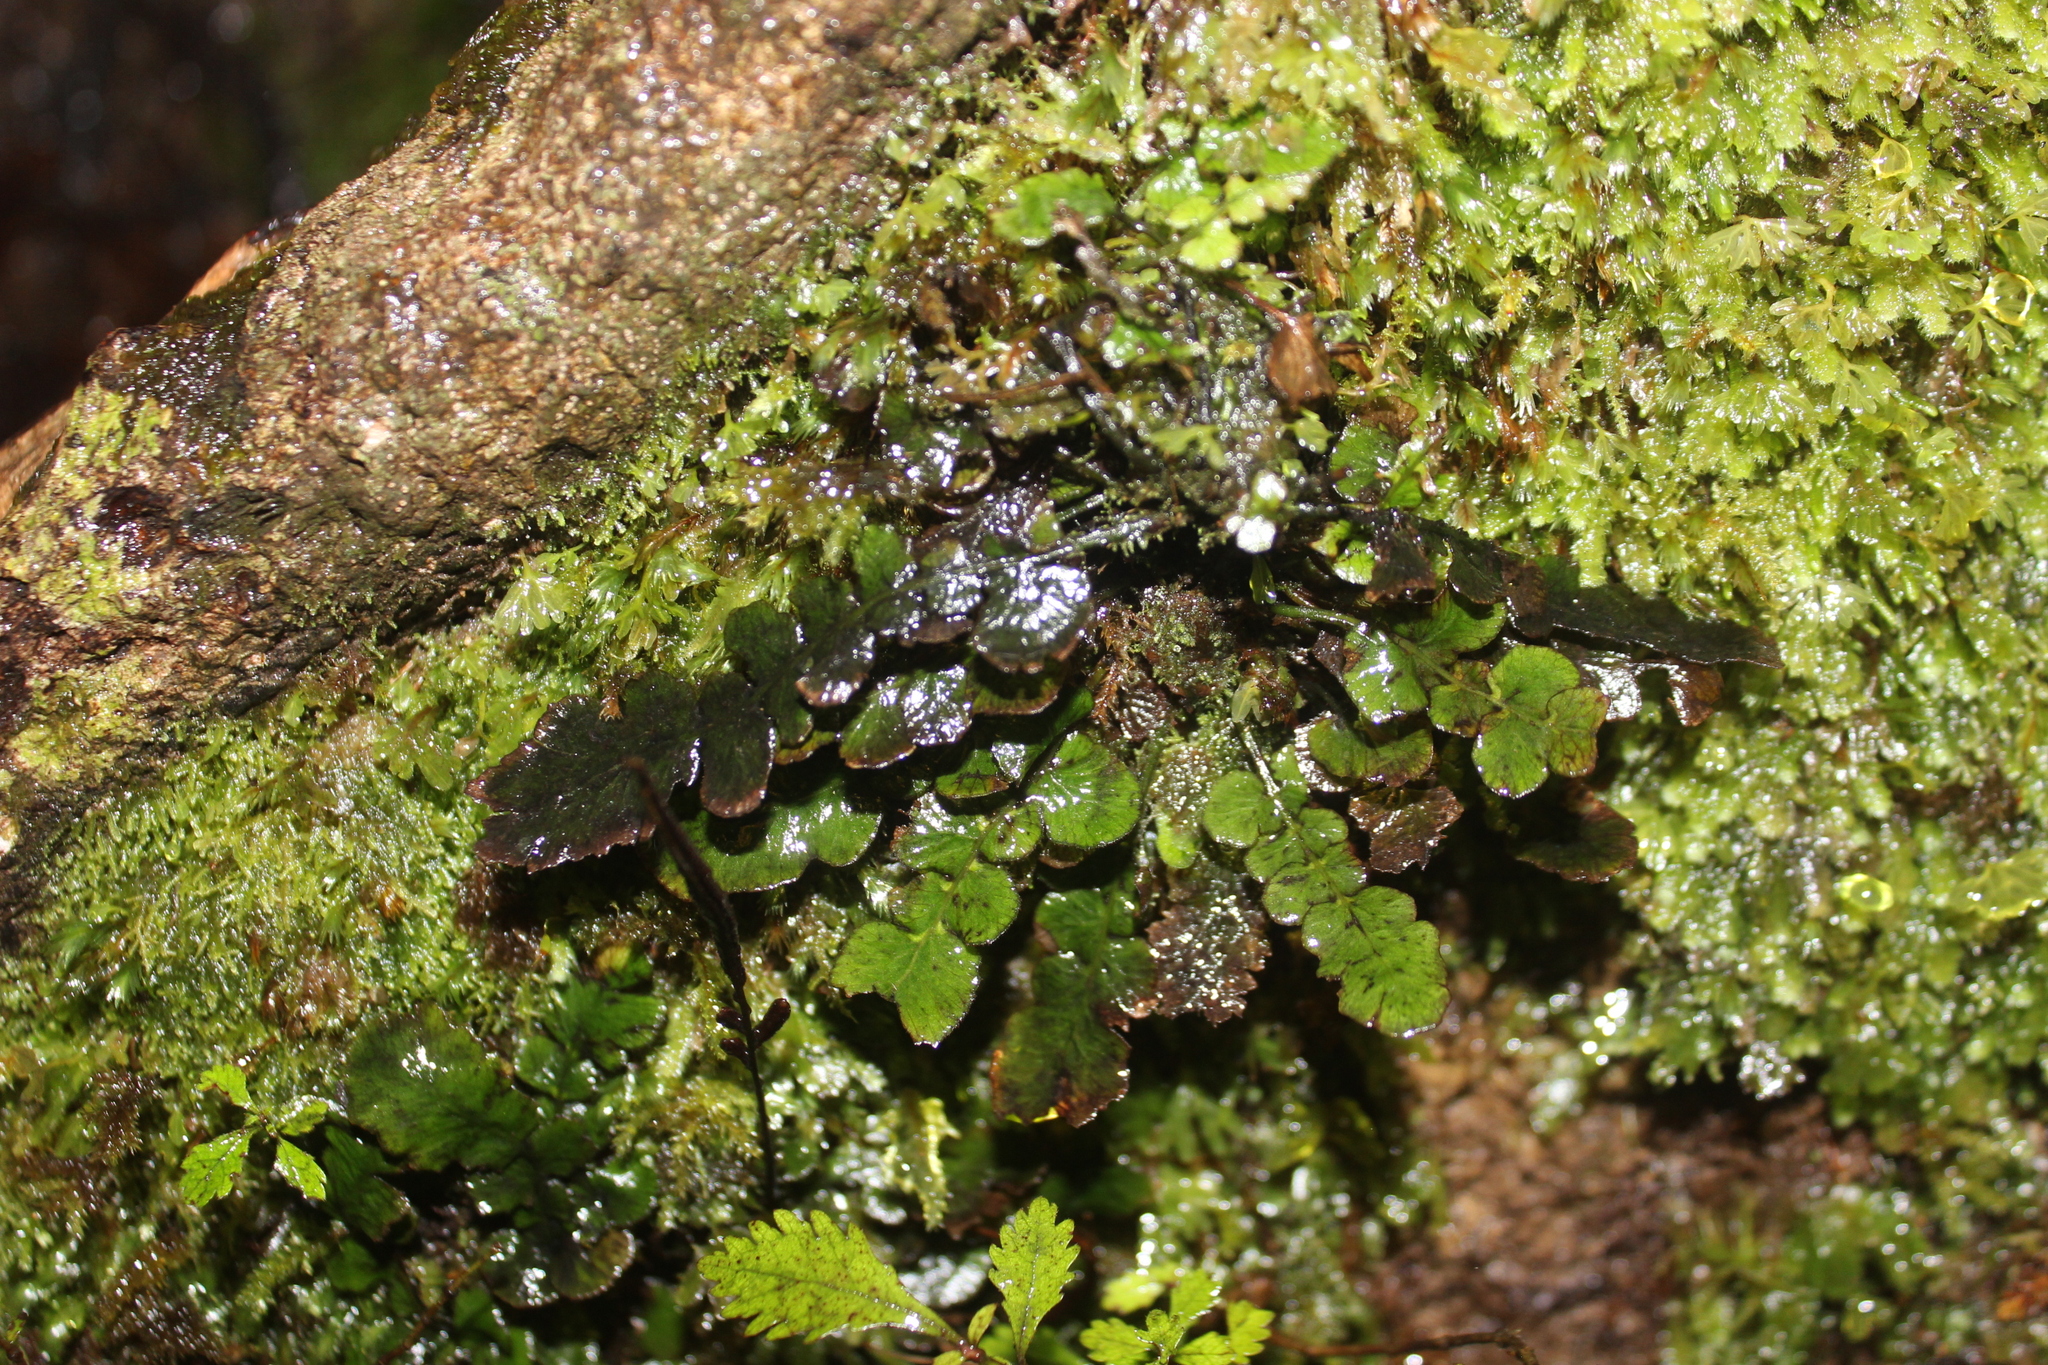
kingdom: Plantae
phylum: Tracheophyta
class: Polypodiopsida
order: Polypodiales
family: Blechnaceae
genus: Cranfillia
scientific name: Cranfillia nigra
